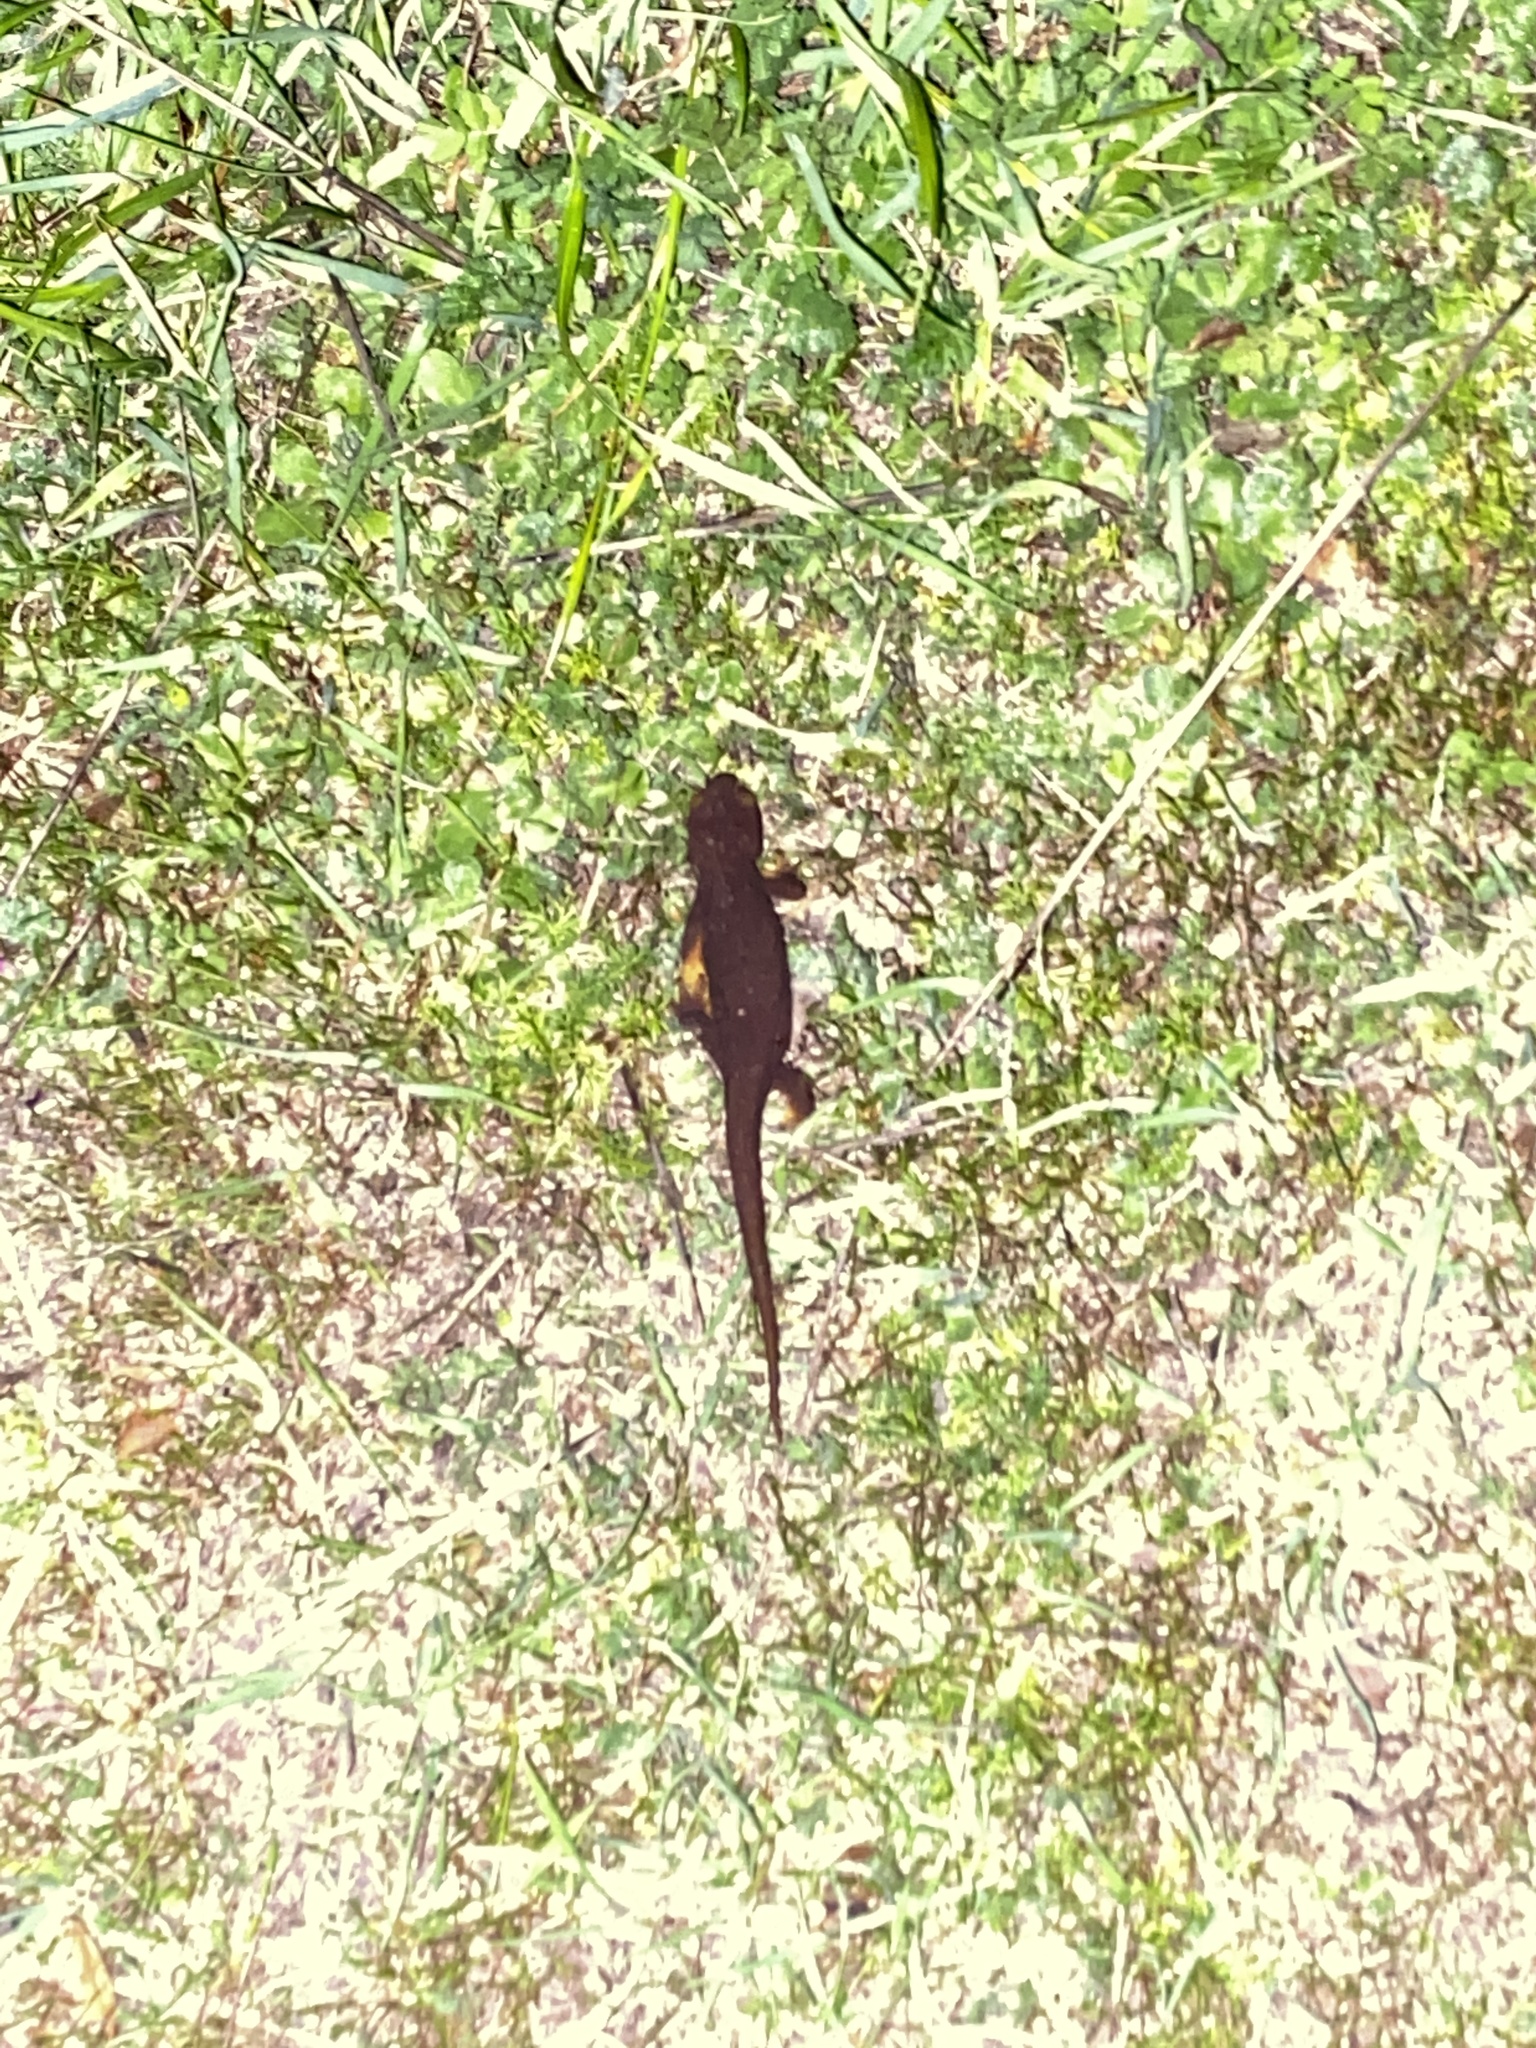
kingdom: Animalia
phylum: Chordata
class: Amphibia
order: Caudata
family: Salamandridae
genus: Taricha
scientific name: Taricha torosa
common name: California newt
